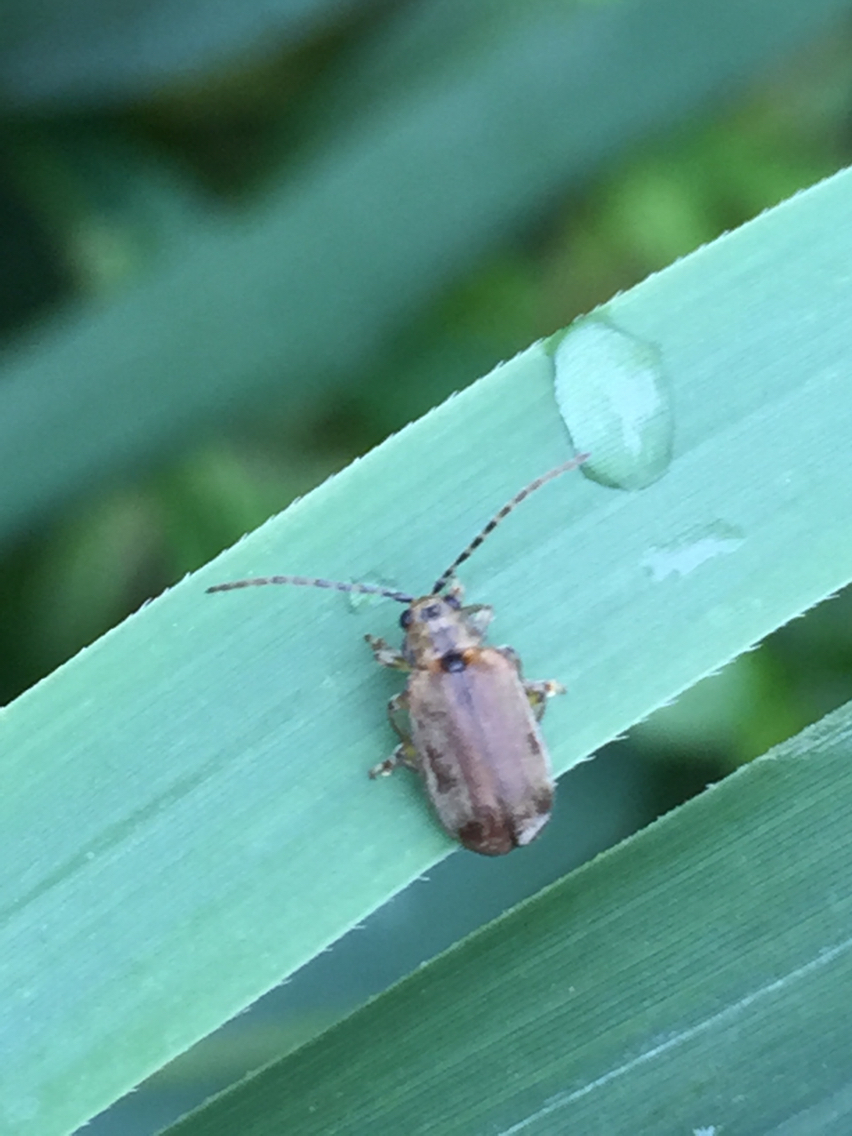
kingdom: Animalia
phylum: Arthropoda
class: Insecta
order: Coleoptera
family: Chrysomelidae
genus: Pyrrhalta
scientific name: Pyrrhalta viburni
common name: Guelder-rose leaf beetle
